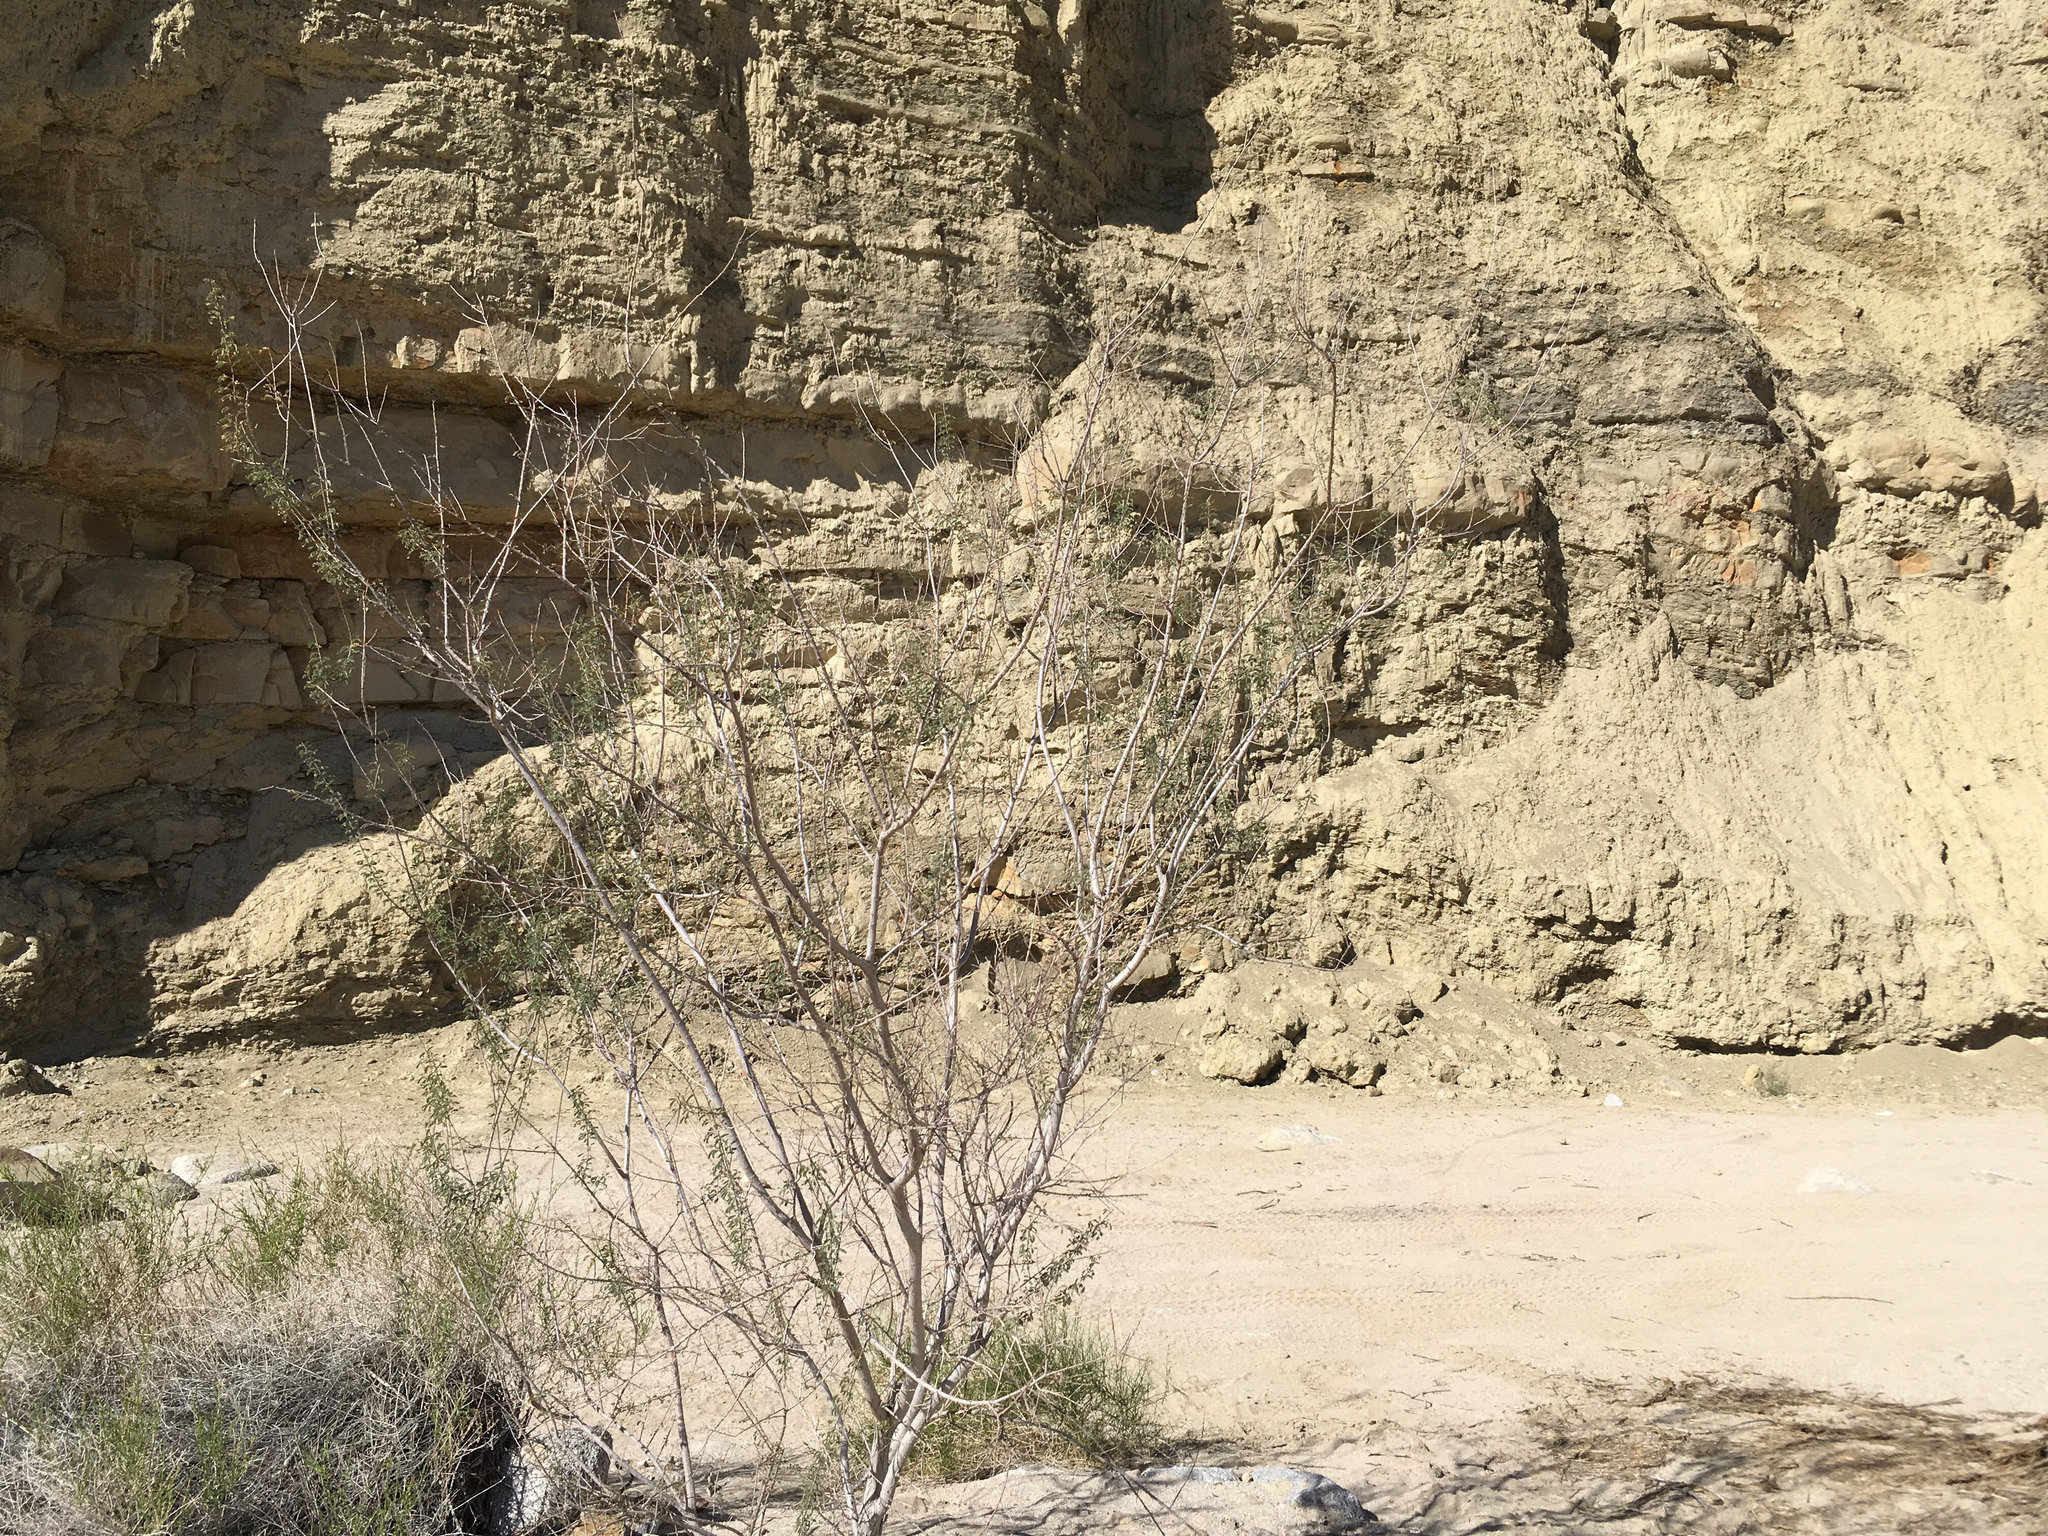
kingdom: Plantae
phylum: Tracheophyta
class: Magnoliopsida
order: Fabales
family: Fabaceae
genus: Senegalia
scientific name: Senegalia greggii
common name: Texas-mimosa
